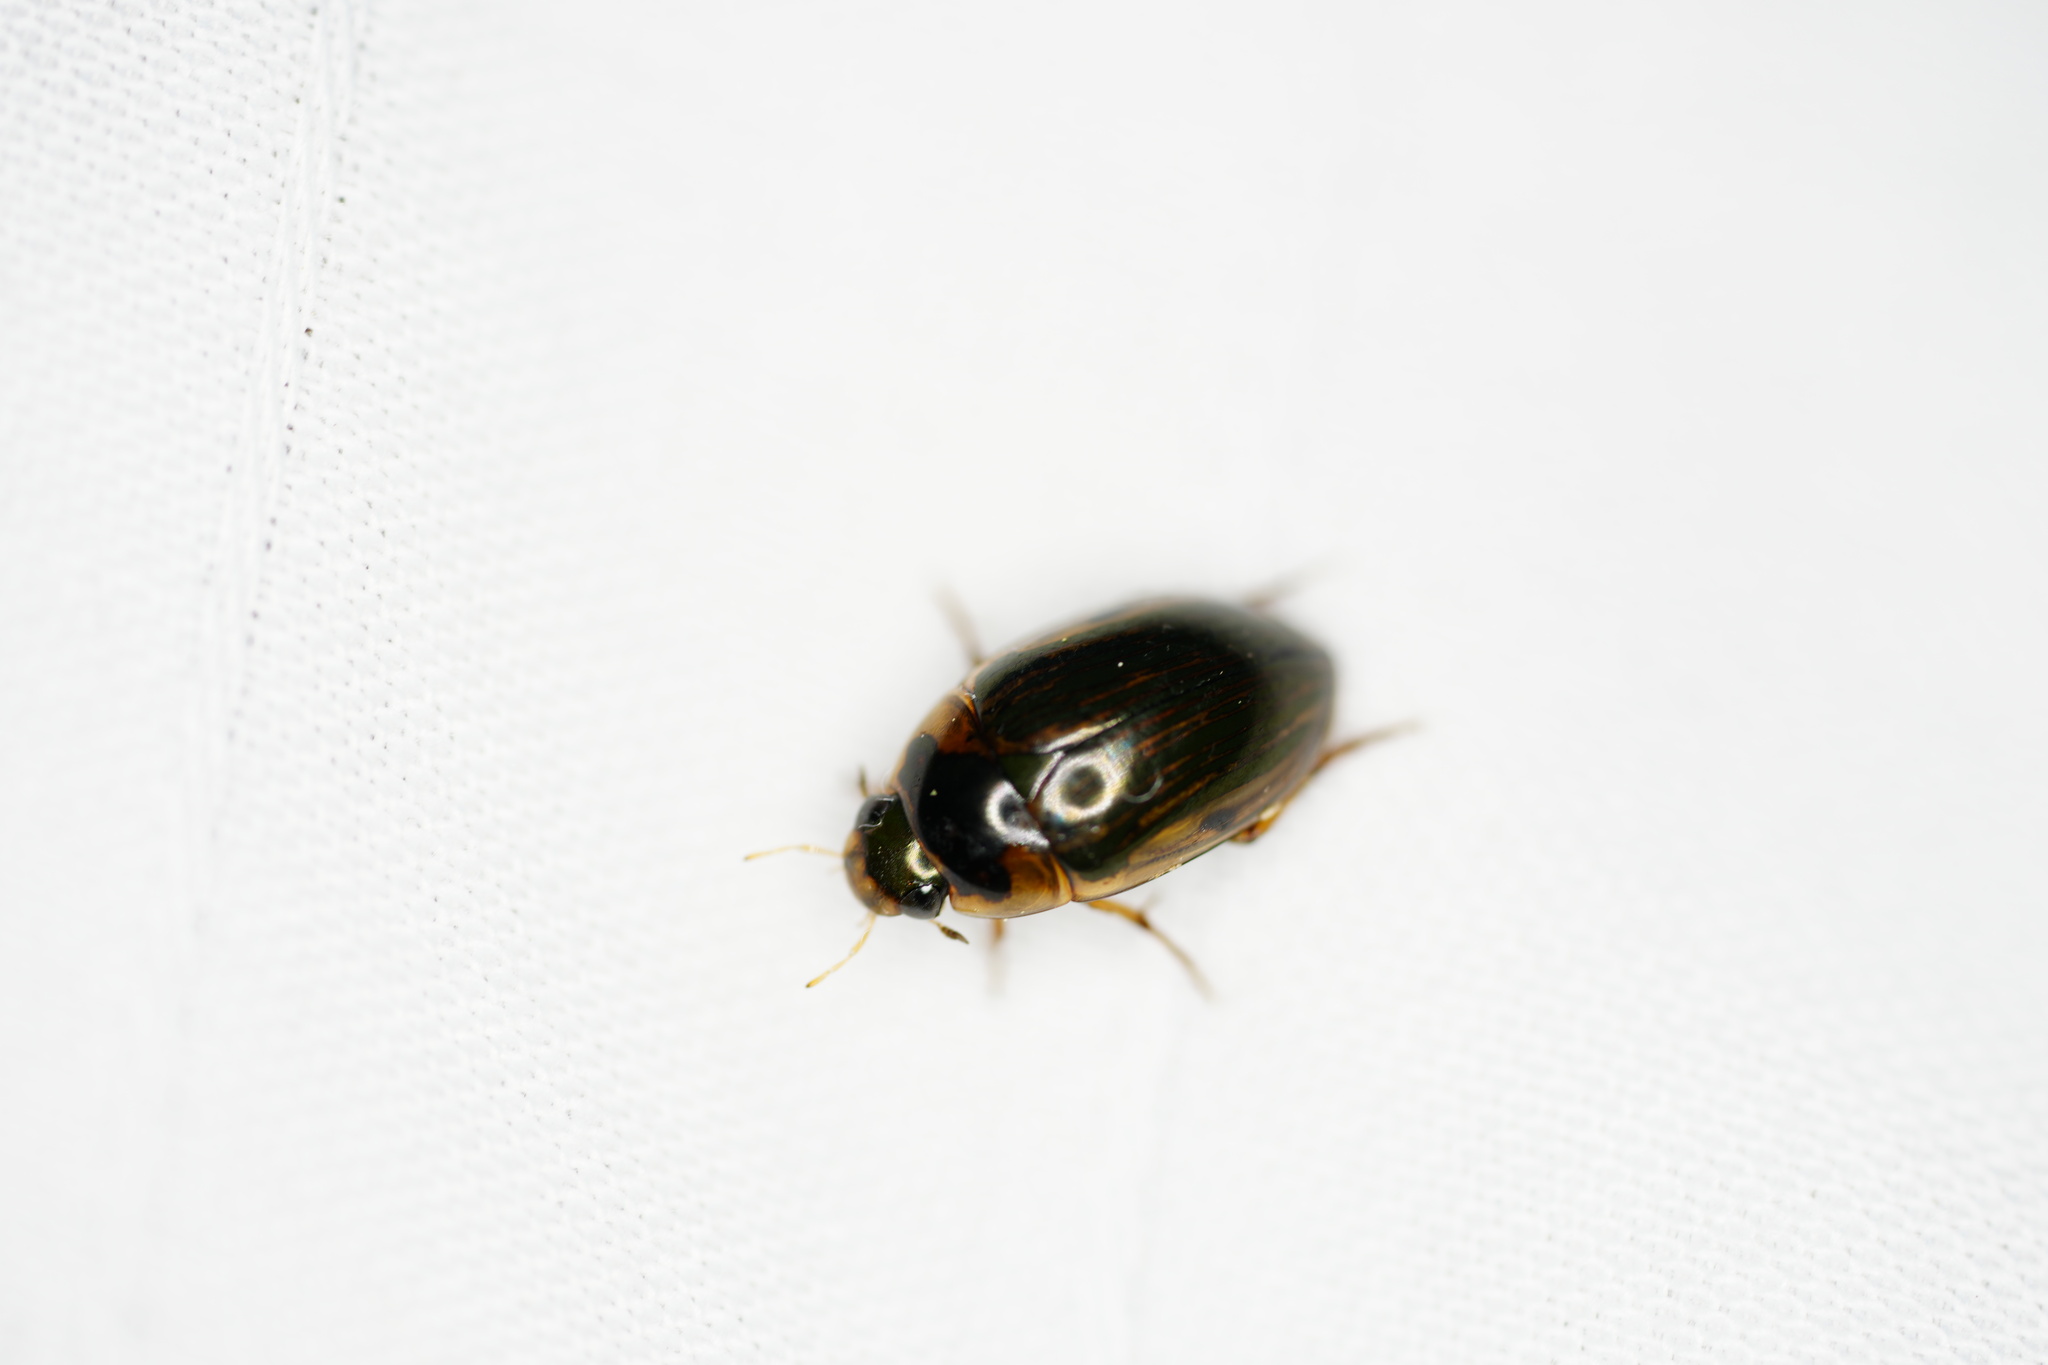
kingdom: Animalia
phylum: Arthropoda
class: Insecta
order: Coleoptera
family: Hydrophilidae
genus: Tropisternus
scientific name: Tropisternus collaris
